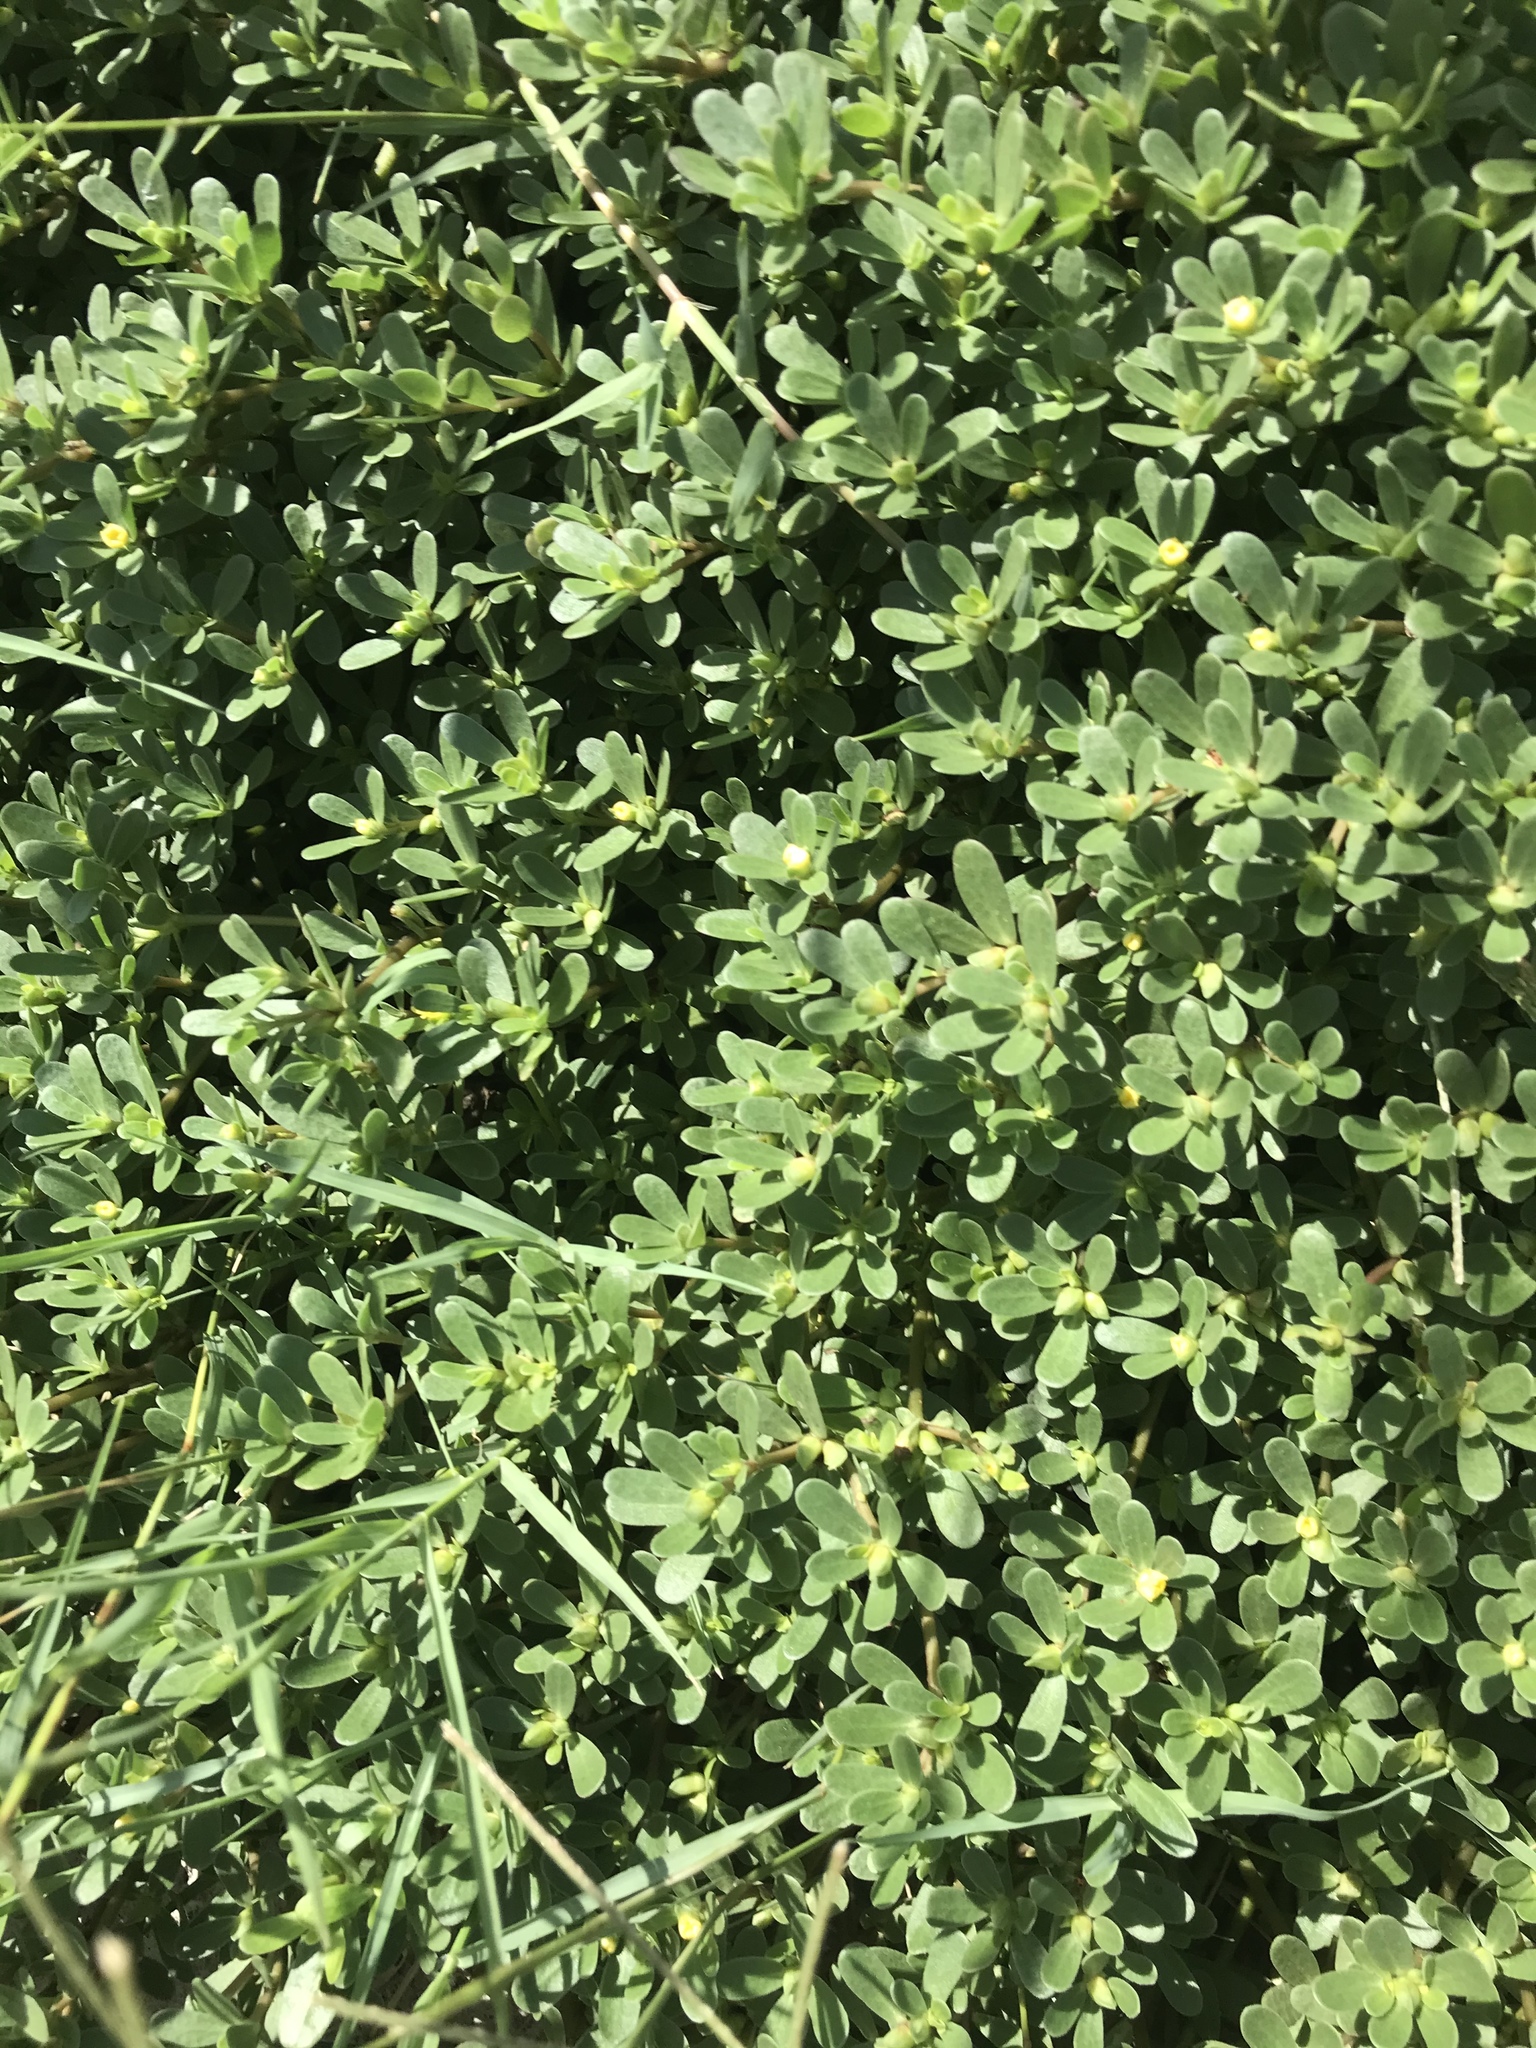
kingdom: Plantae
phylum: Tracheophyta
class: Magnoliopsida
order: Caryophyllales
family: Portulacaceae
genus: Portulaca
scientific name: Portulaca oleracea
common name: Common purslane
